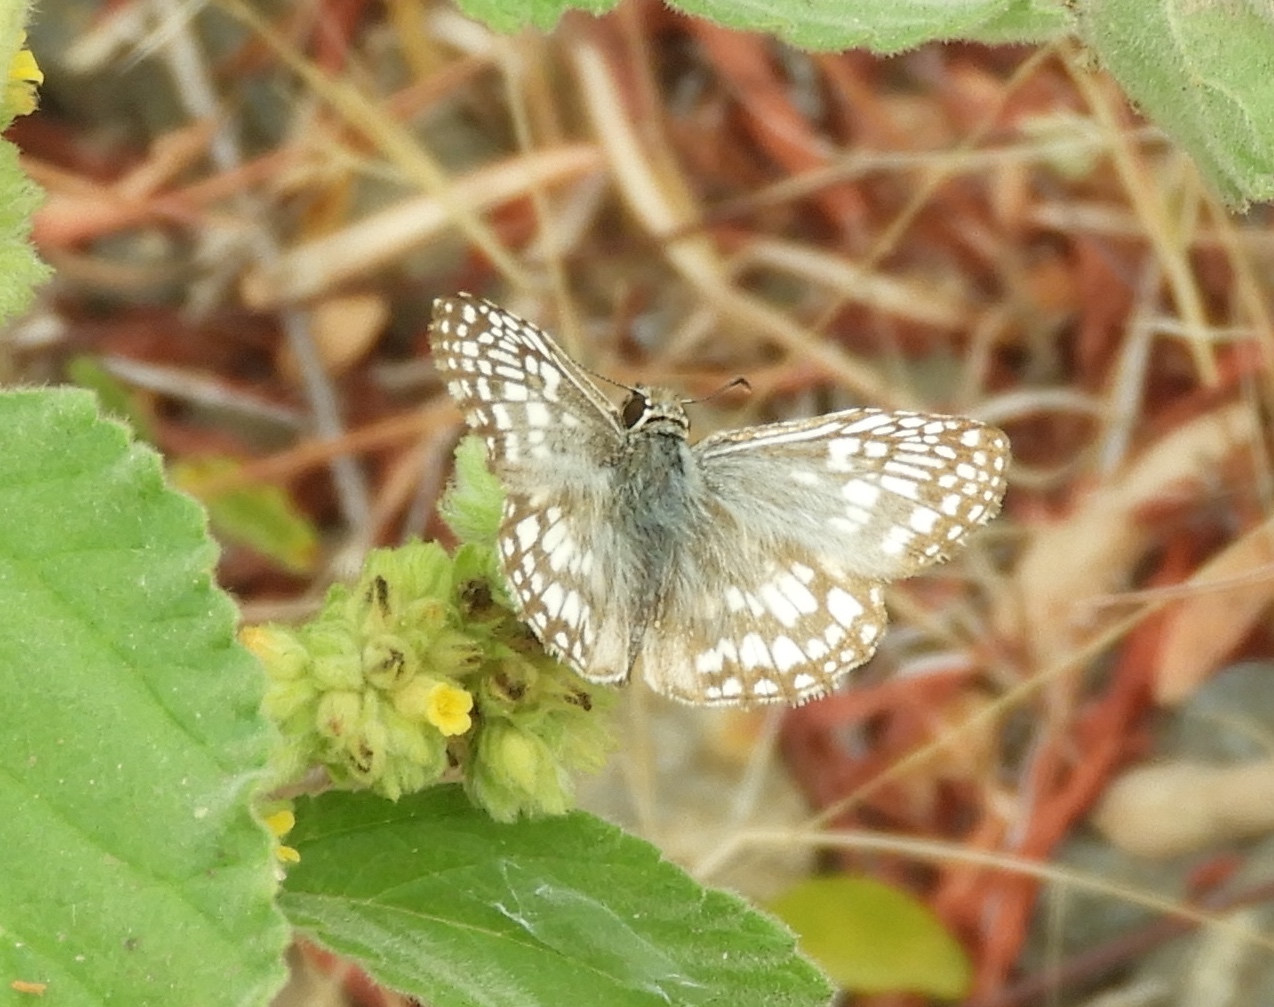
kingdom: Animalia
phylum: Arthropoda
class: Insecta
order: Lepidoptera
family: Hesperiidae
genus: Pyrgus
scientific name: Pyrgus oileus
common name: Tropical checkered-skipper
